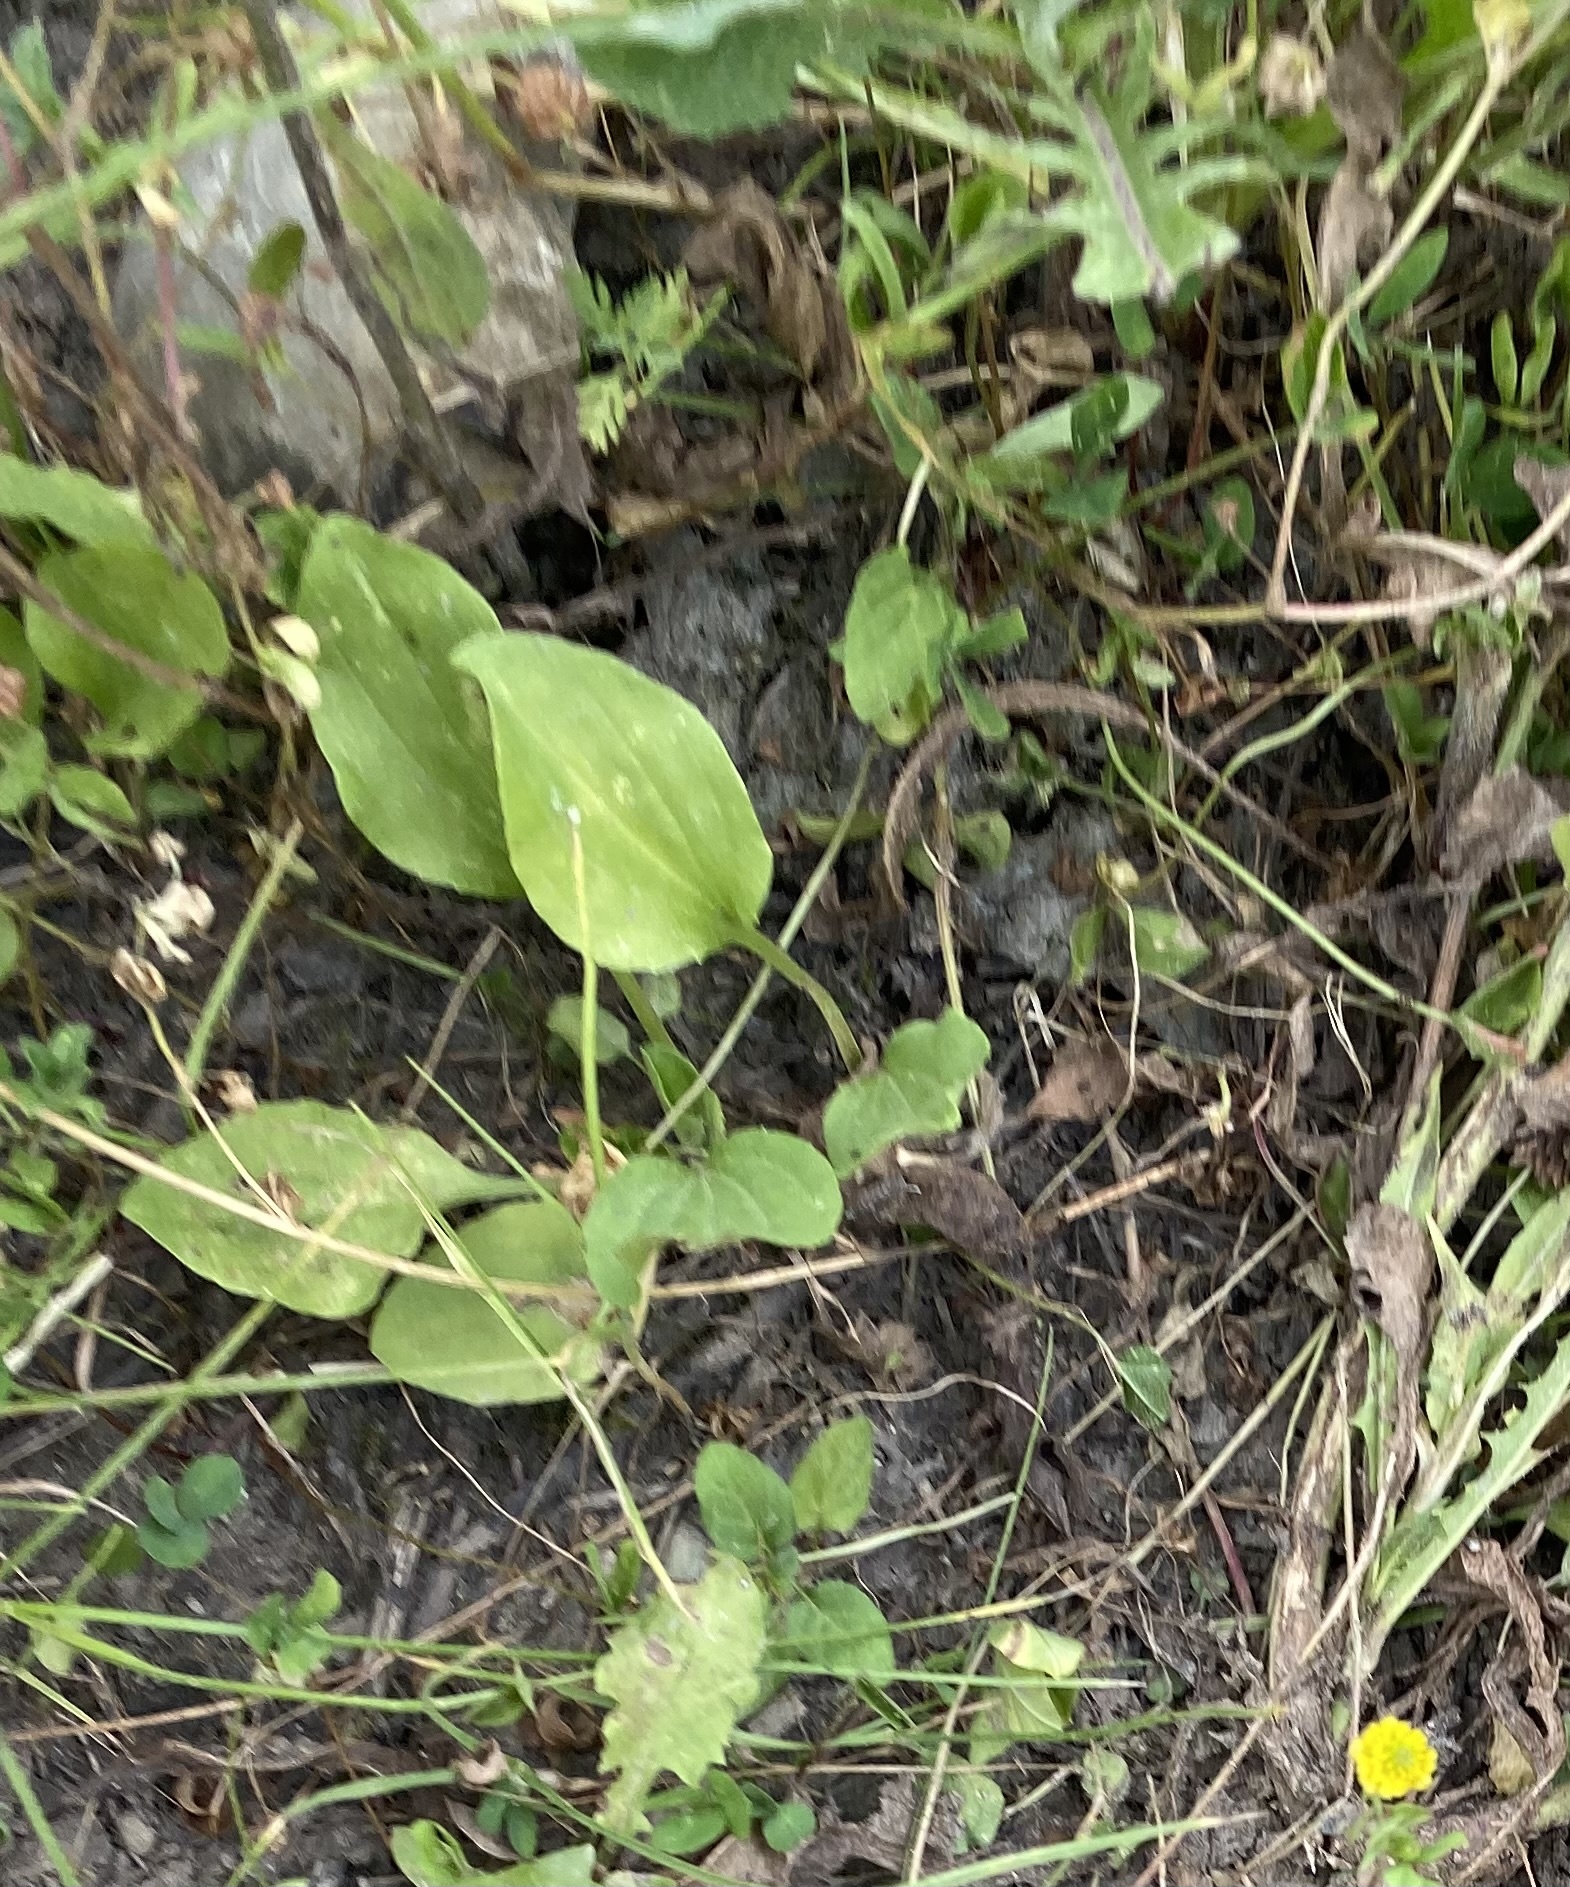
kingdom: Plantae
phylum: Tracheophyta
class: Magnoliopsida
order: Lamiales
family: Plantaginaceae
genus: Plantago
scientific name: Plantago major
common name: Common plantain
